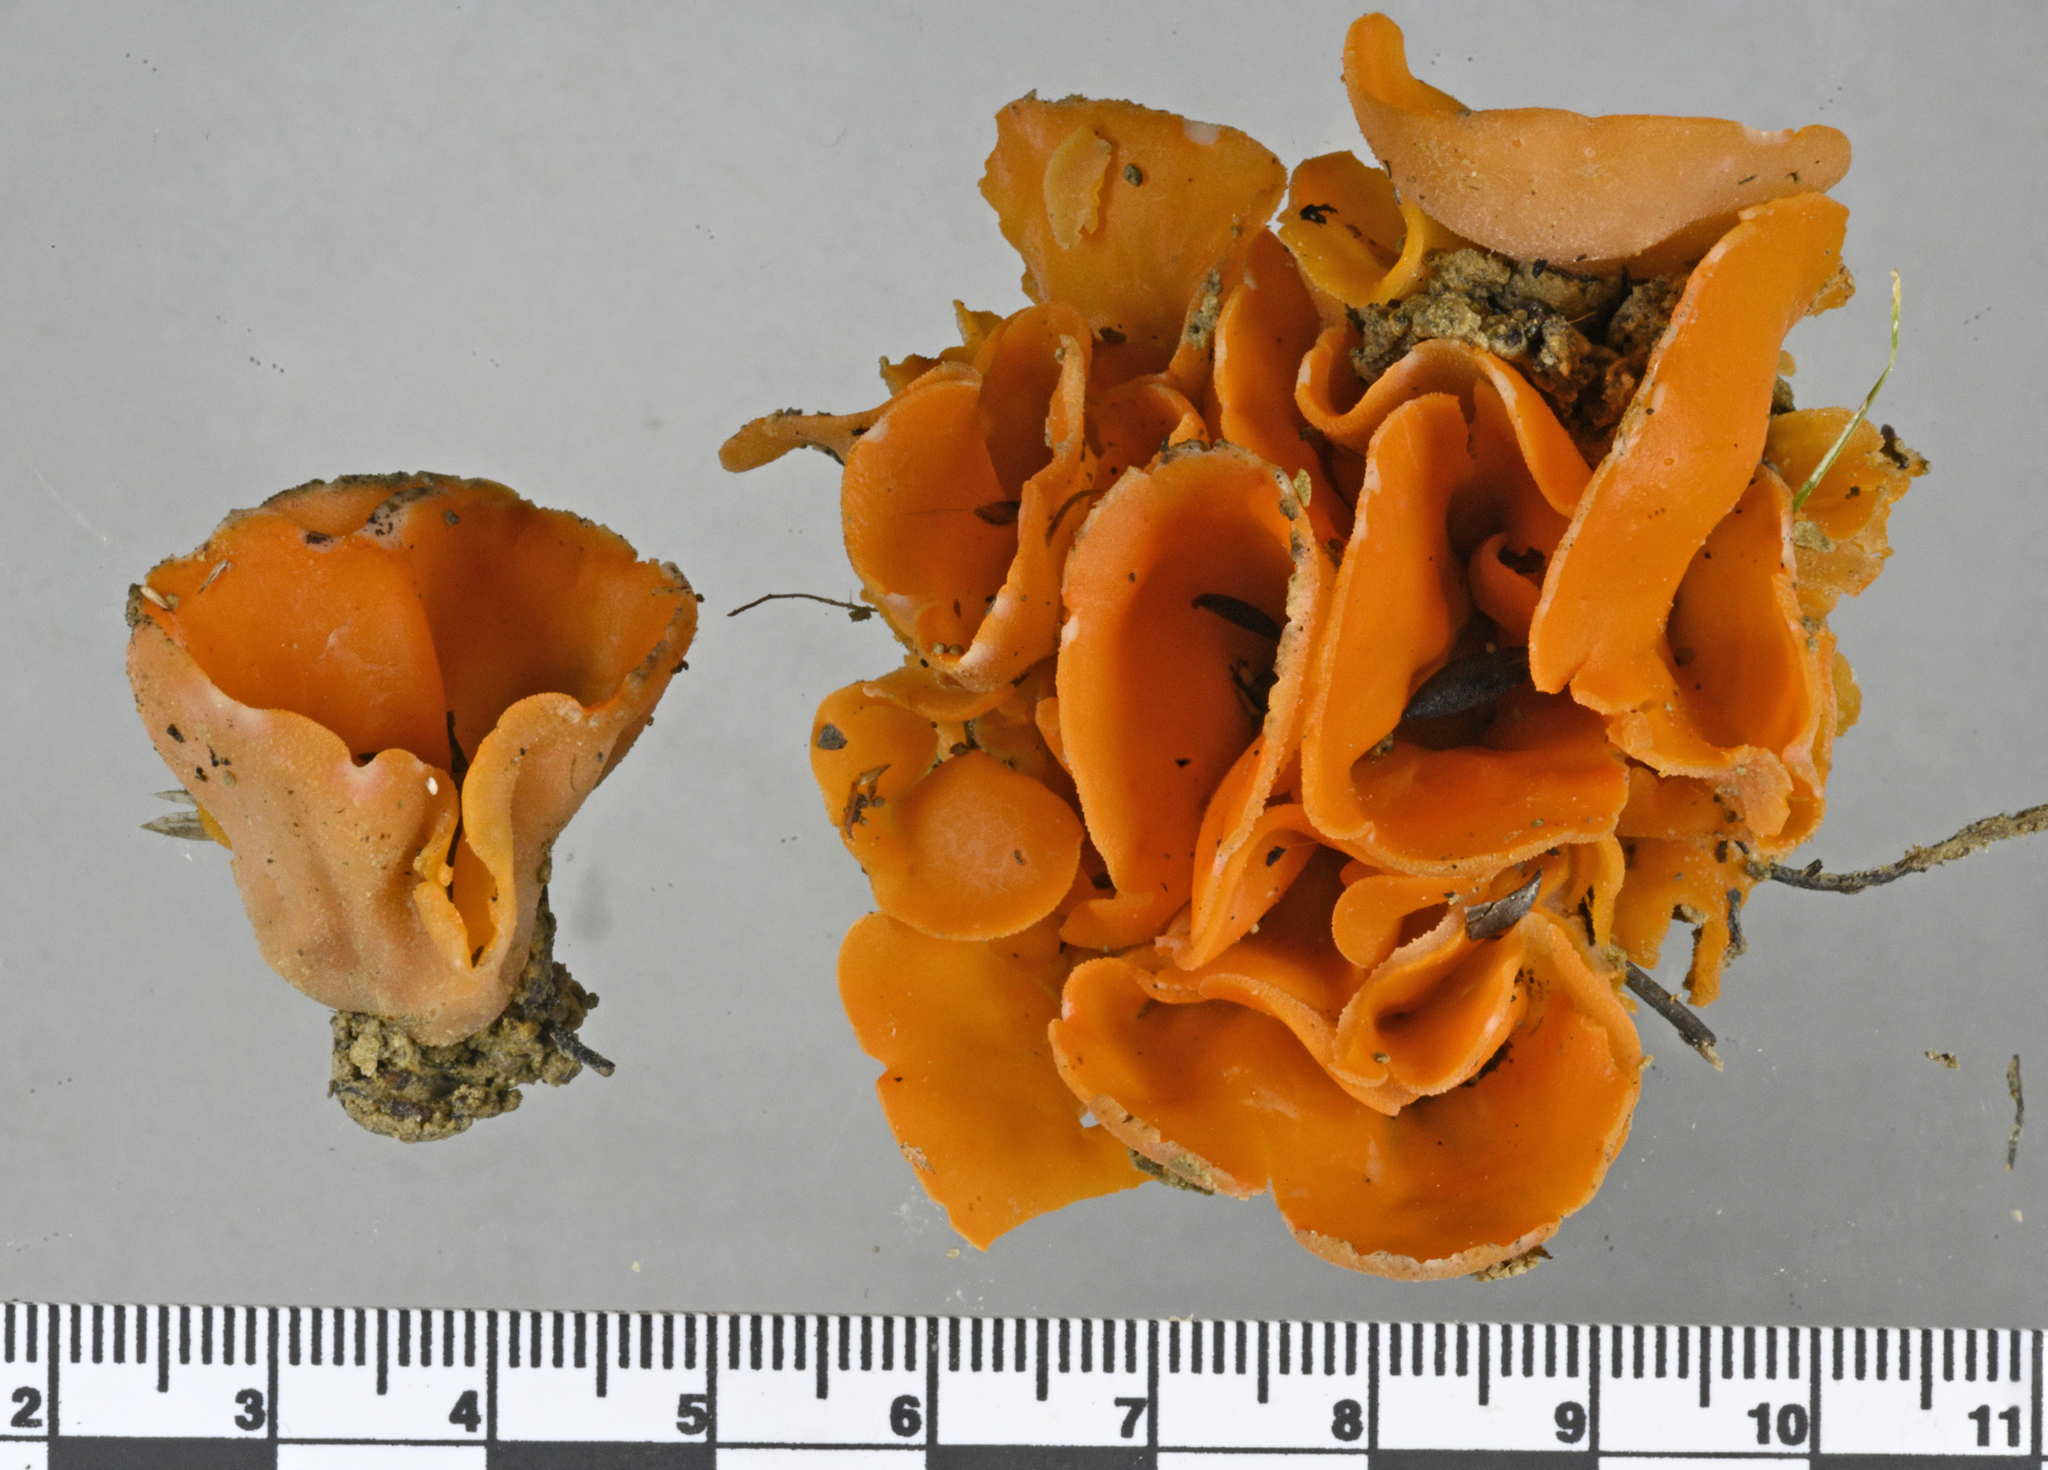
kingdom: Fungi
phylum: Ascomycota
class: Pezizomycetes
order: Pezizales
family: Pyronemataceae
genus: Aleuria
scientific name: Aleuria aurantia
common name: Orange peel fungus
